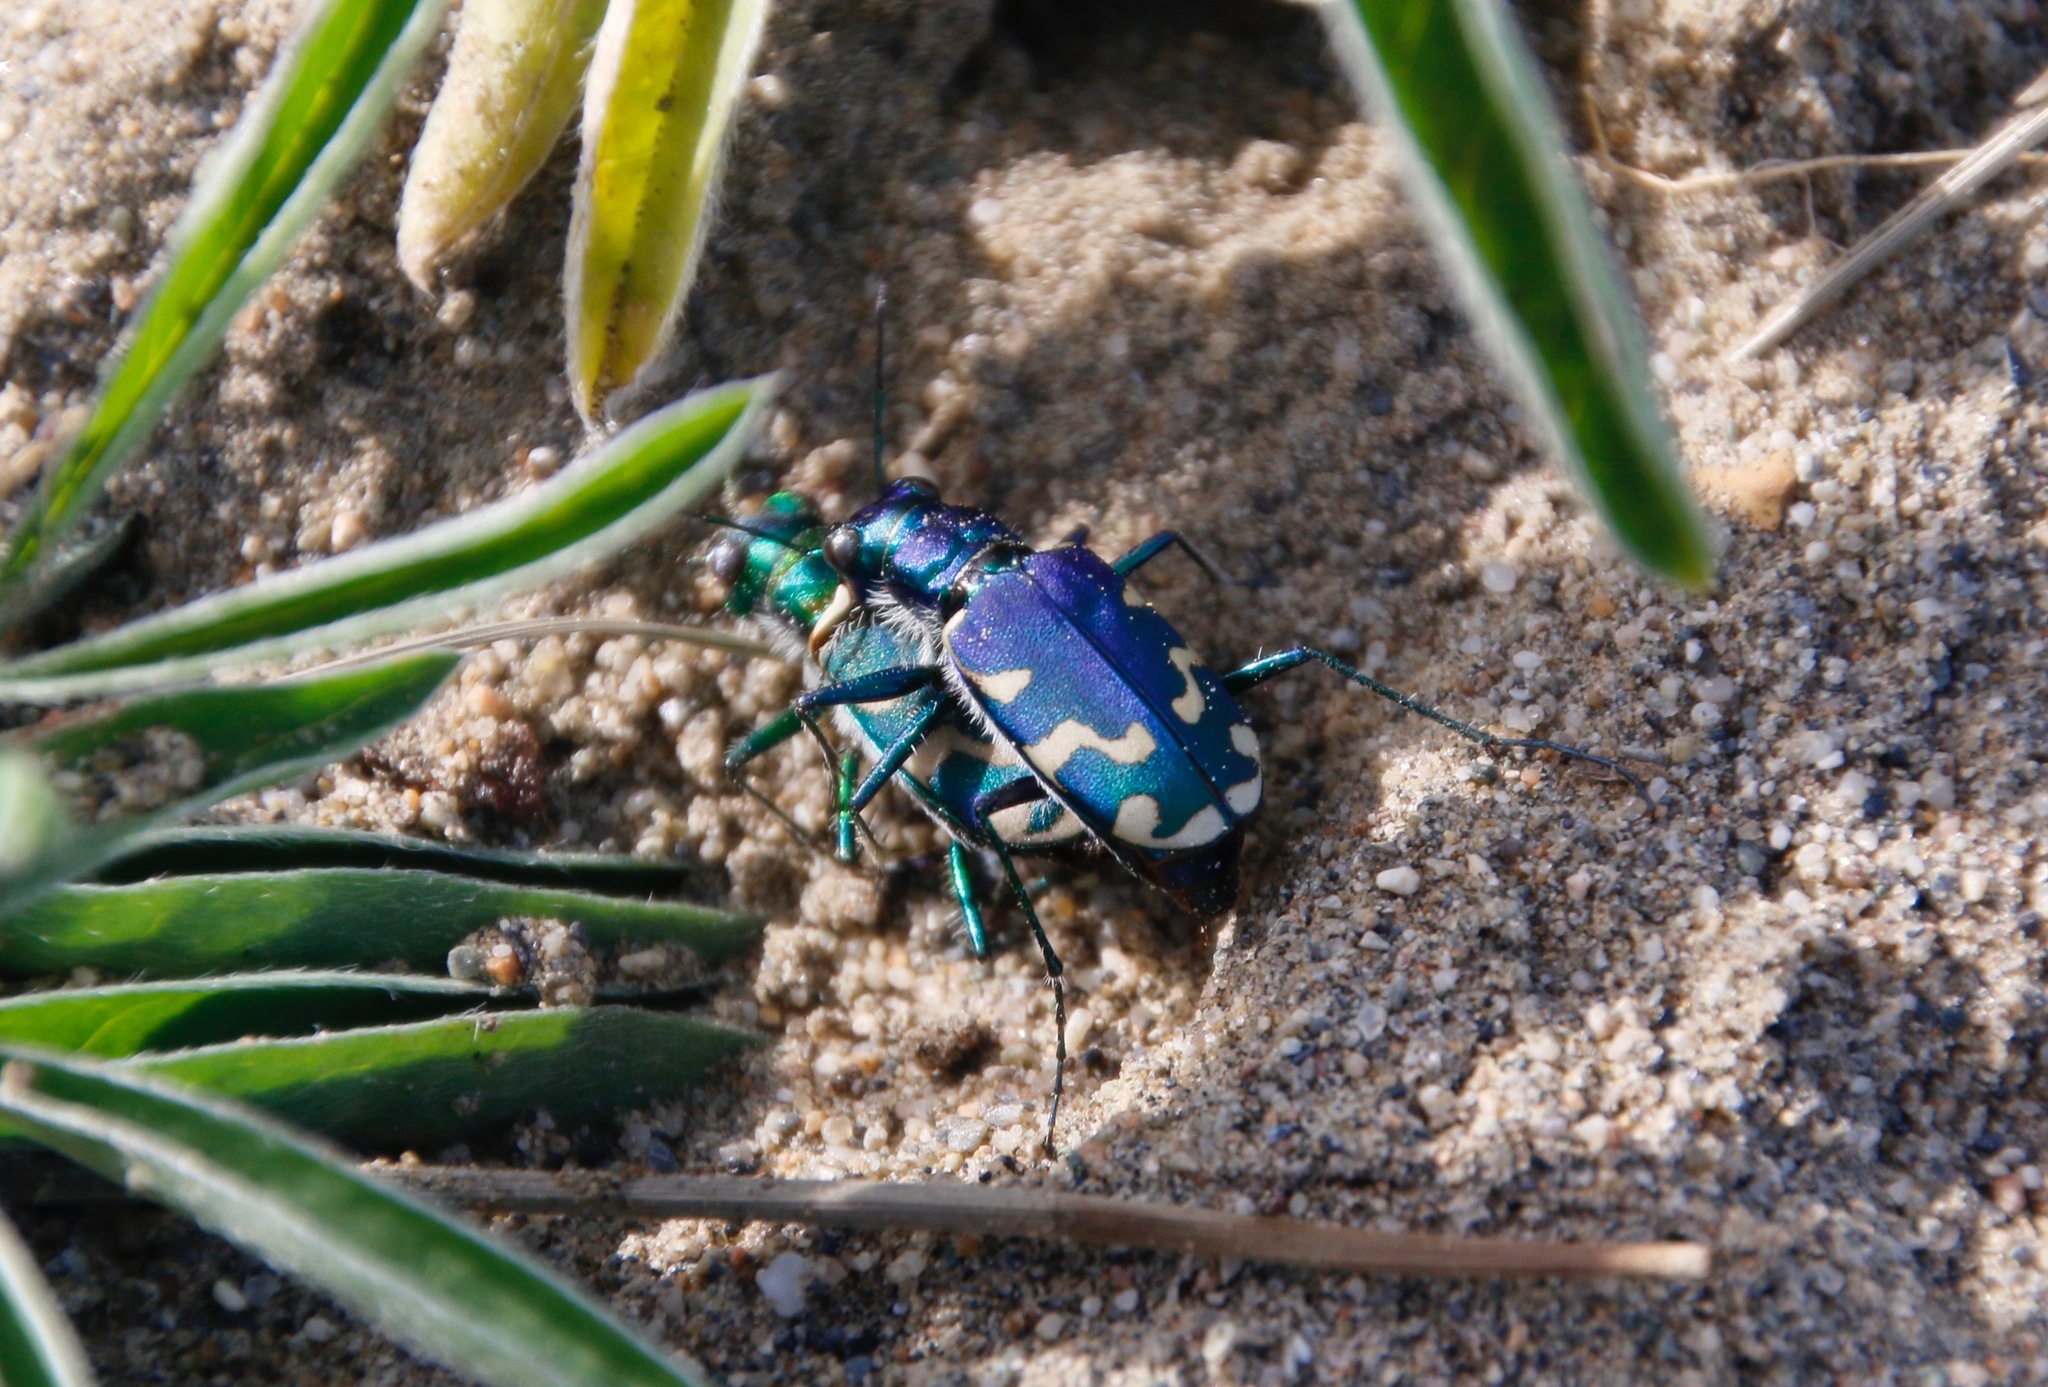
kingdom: Animalia
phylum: Arthropoda
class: Insecta
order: Coleoptera
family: Carabidae
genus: Cicindela
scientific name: Cicindela coerulea
